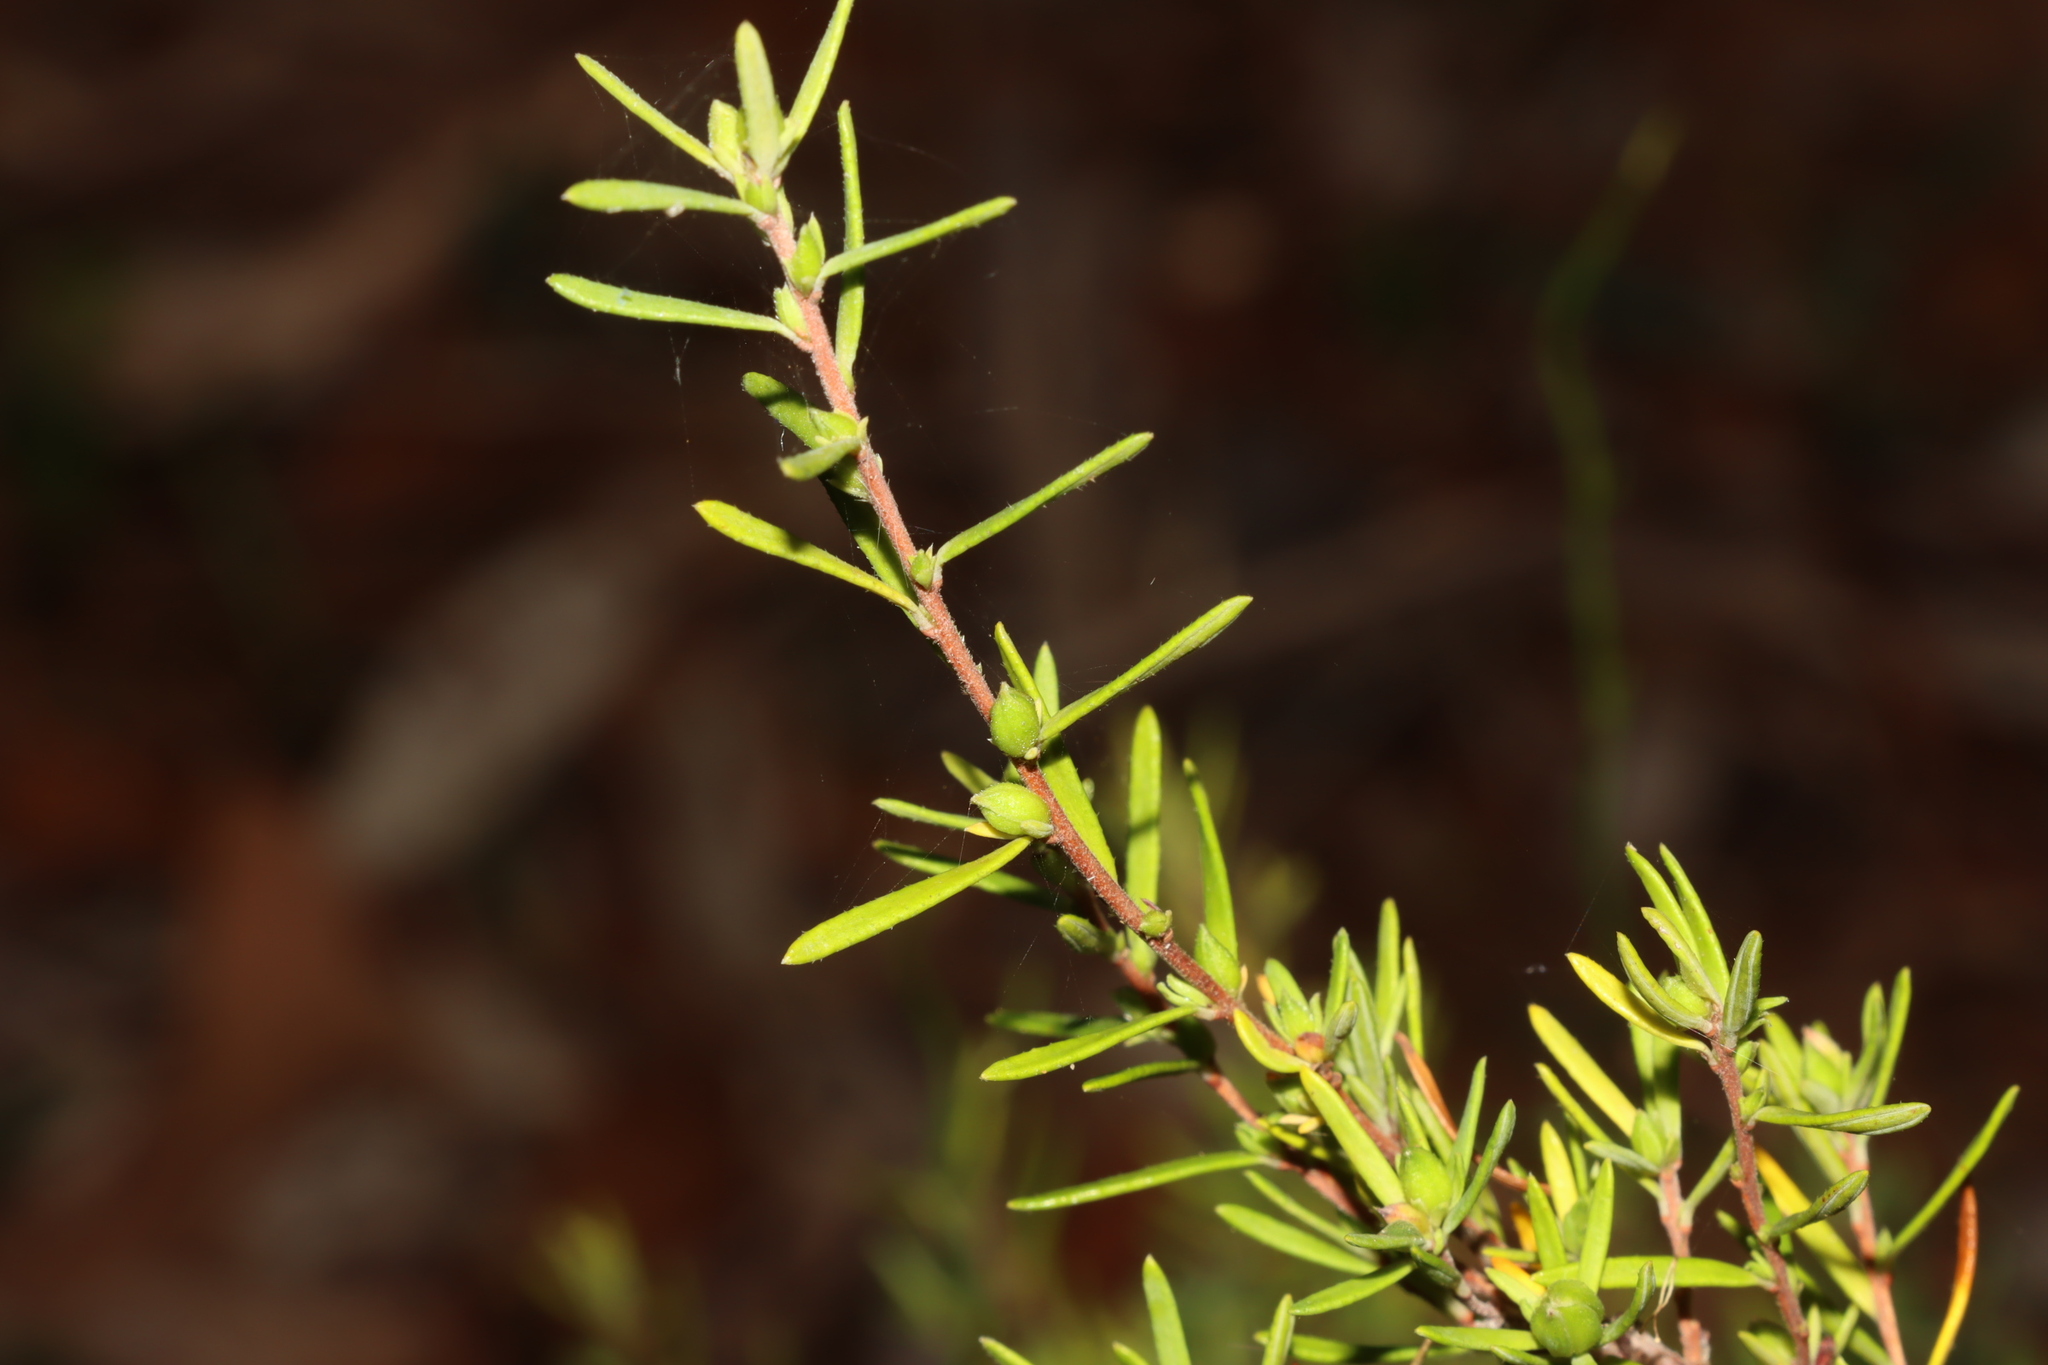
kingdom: Plantae
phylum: Tracheophyta
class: Magnoliopsida
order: Dilleniales
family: Dilleniaceae
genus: Hibbertia
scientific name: Hibbertia riparia
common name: Erect guinea-flower
